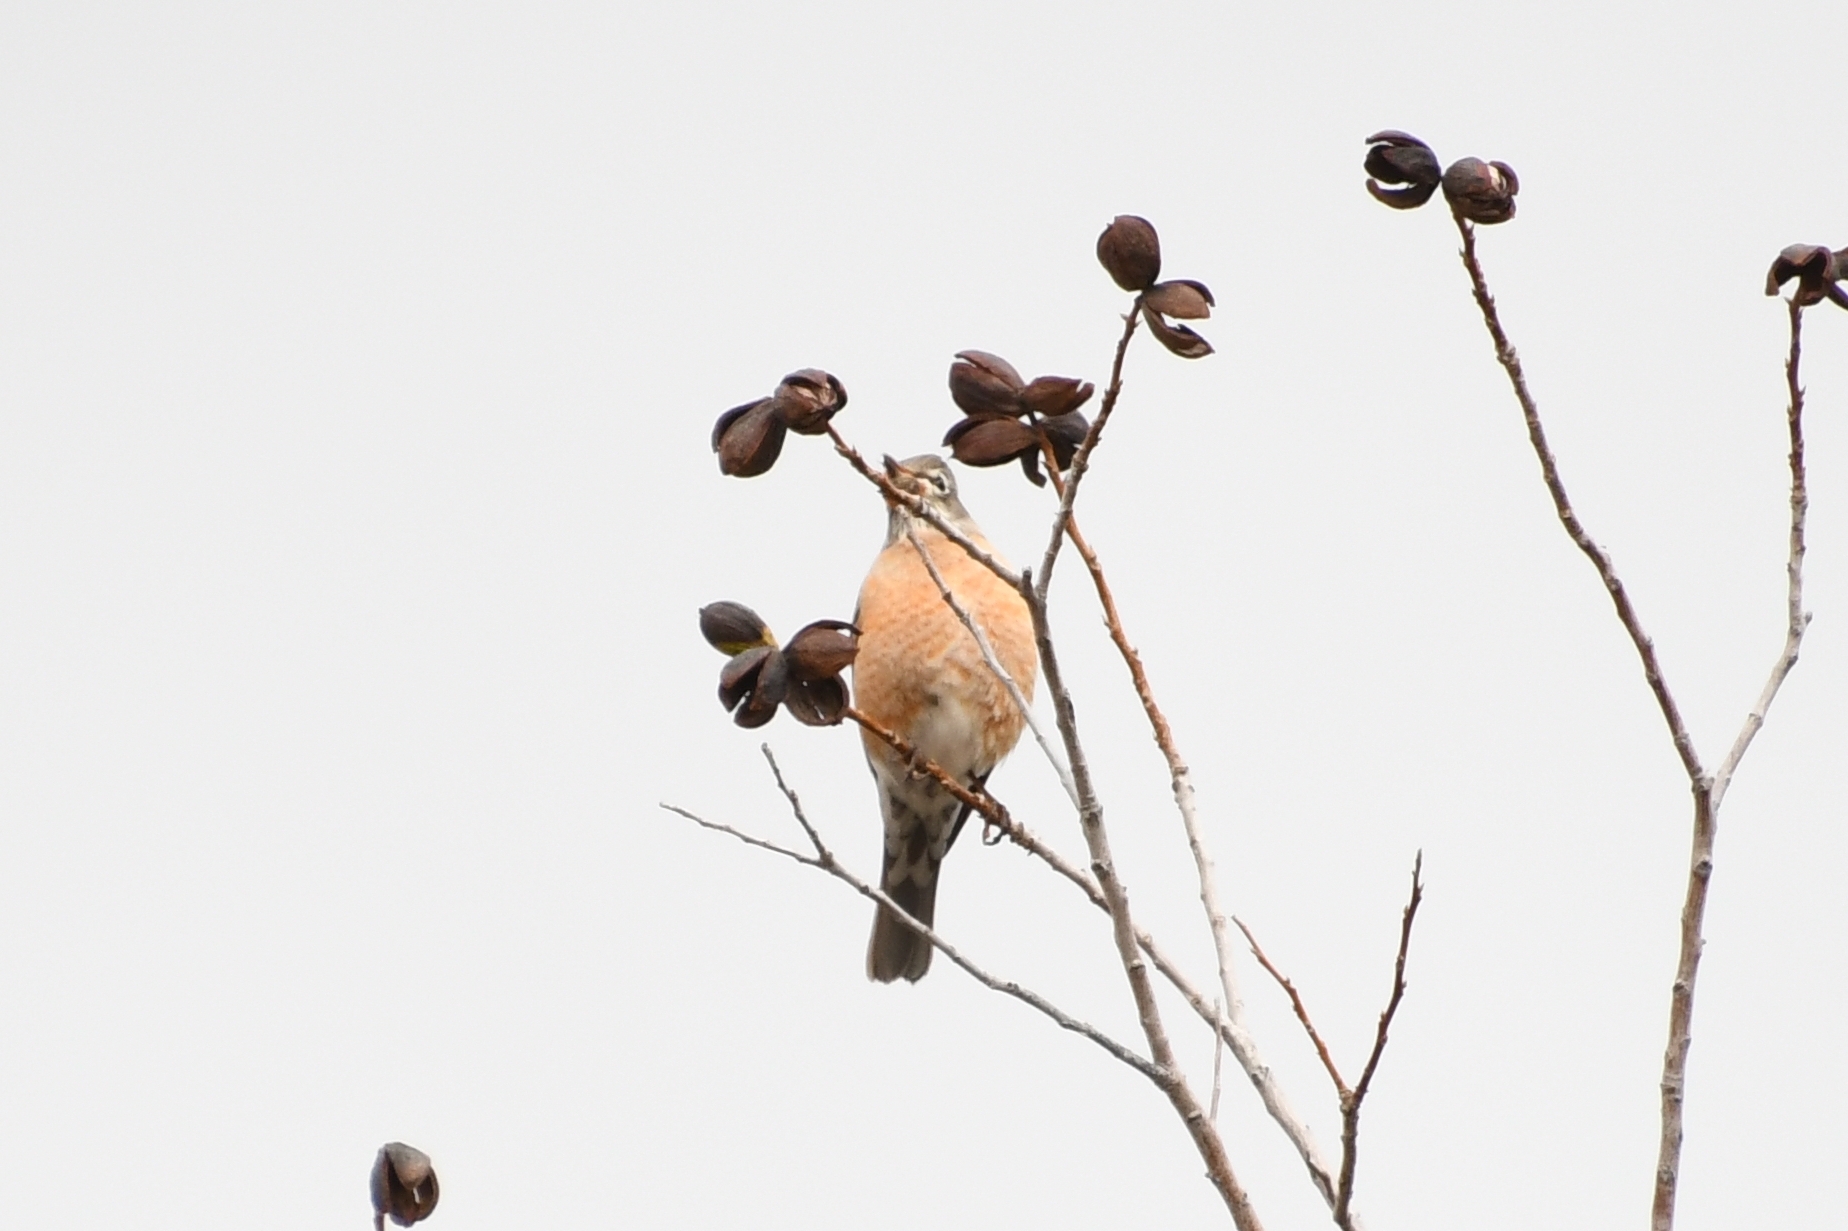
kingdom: Animalia
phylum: Chordata
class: Aves
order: Passeriformes
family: Turdidae
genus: Turdus
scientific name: Turdus migratorius
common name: American robin
